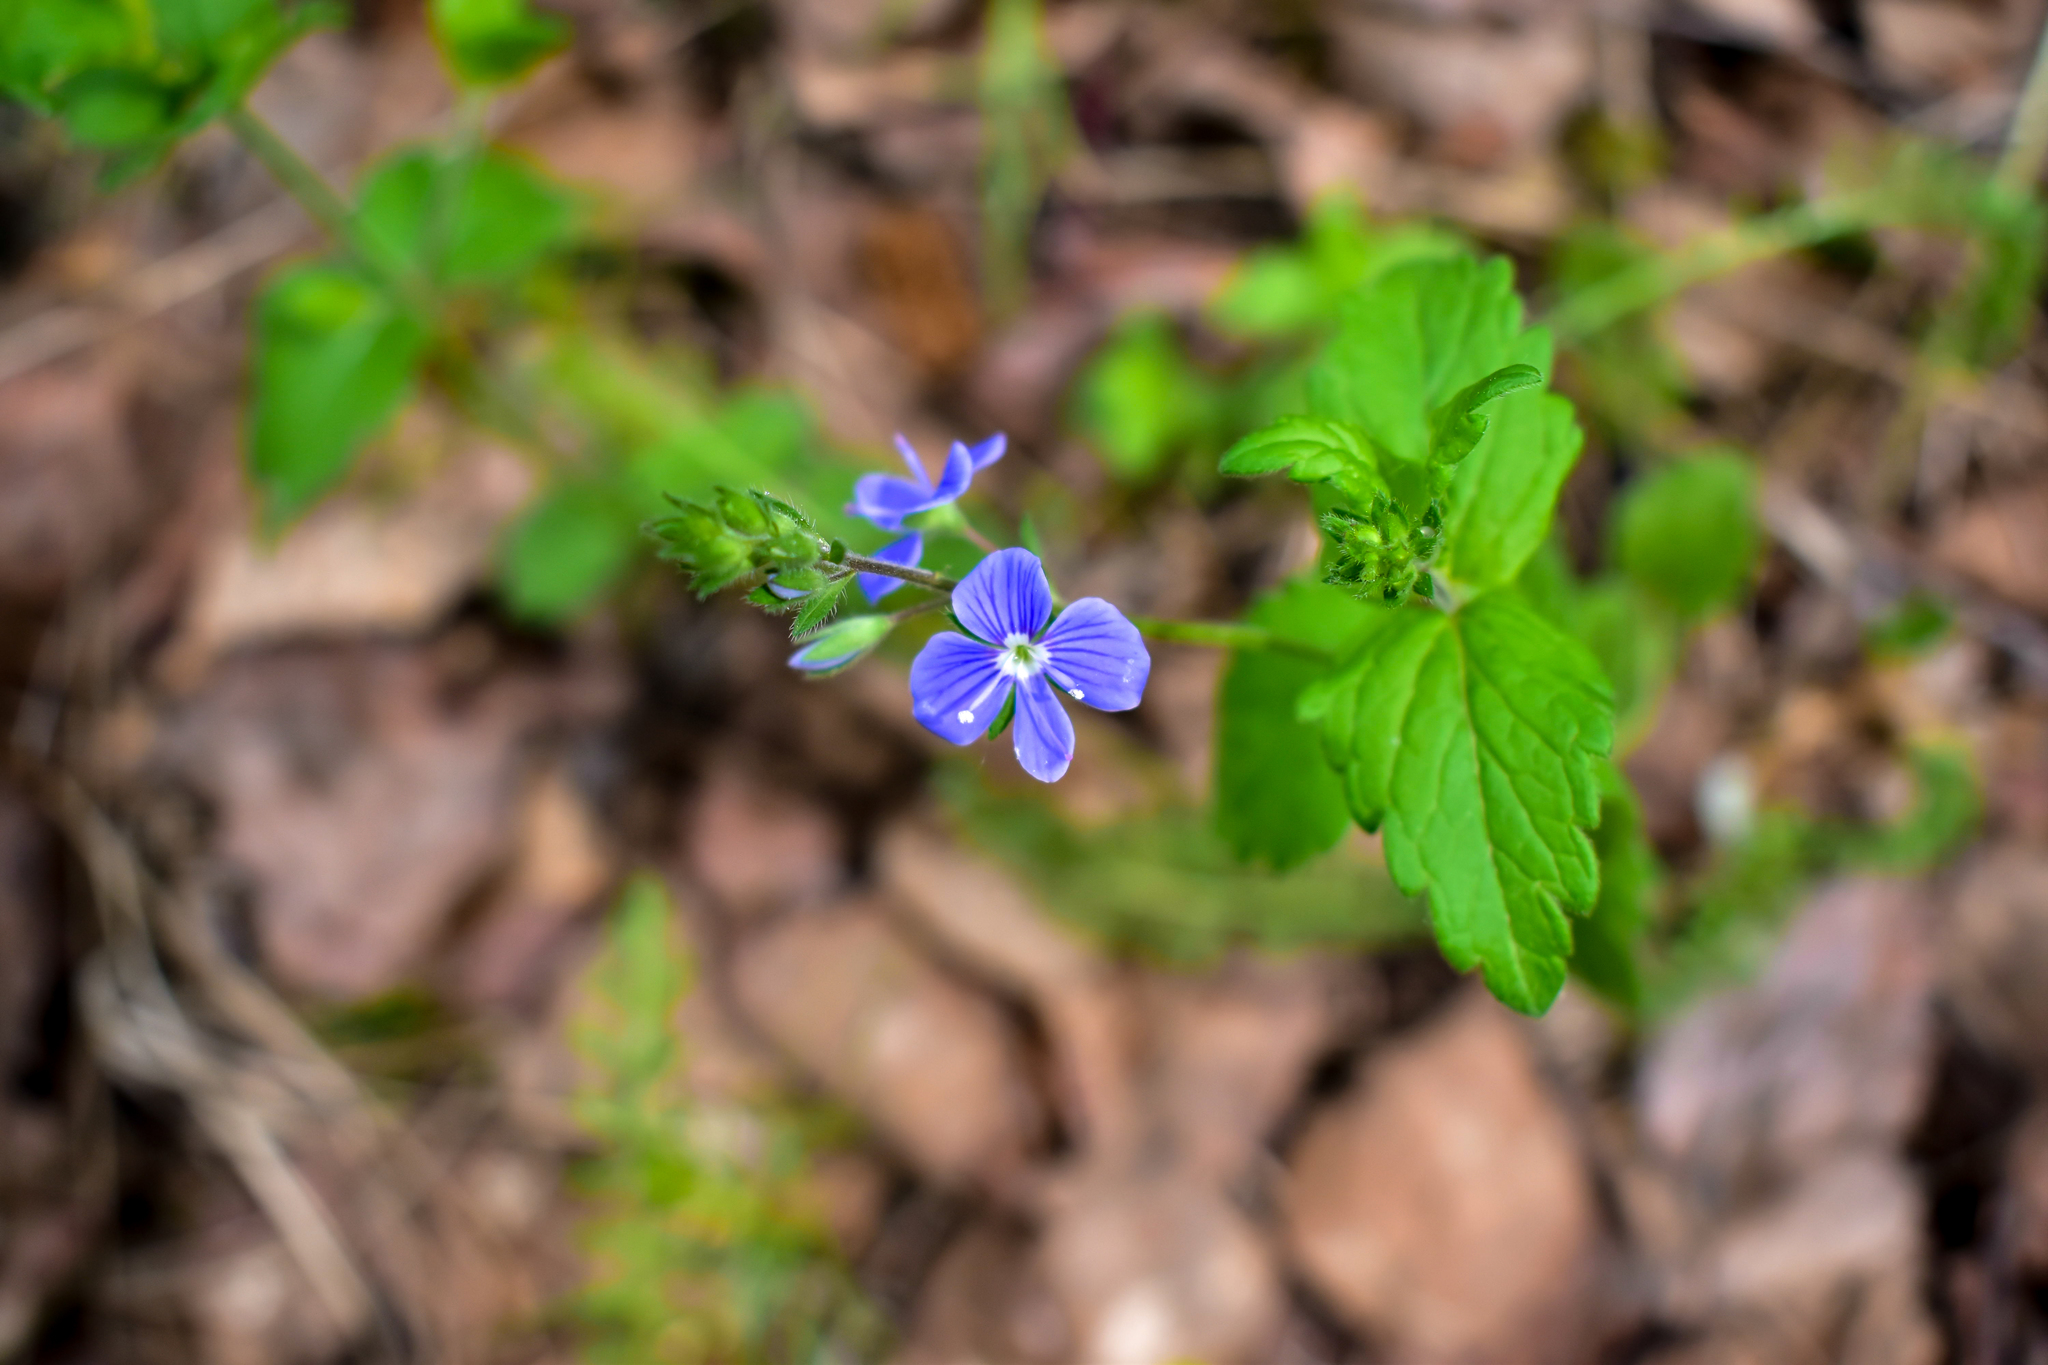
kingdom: Plantae
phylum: Tracheophyta
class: Magnoliopsida
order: Lamiales
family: Plantaginaceae
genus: Veronica
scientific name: Veronica chamaedrys
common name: Germander speedwell
